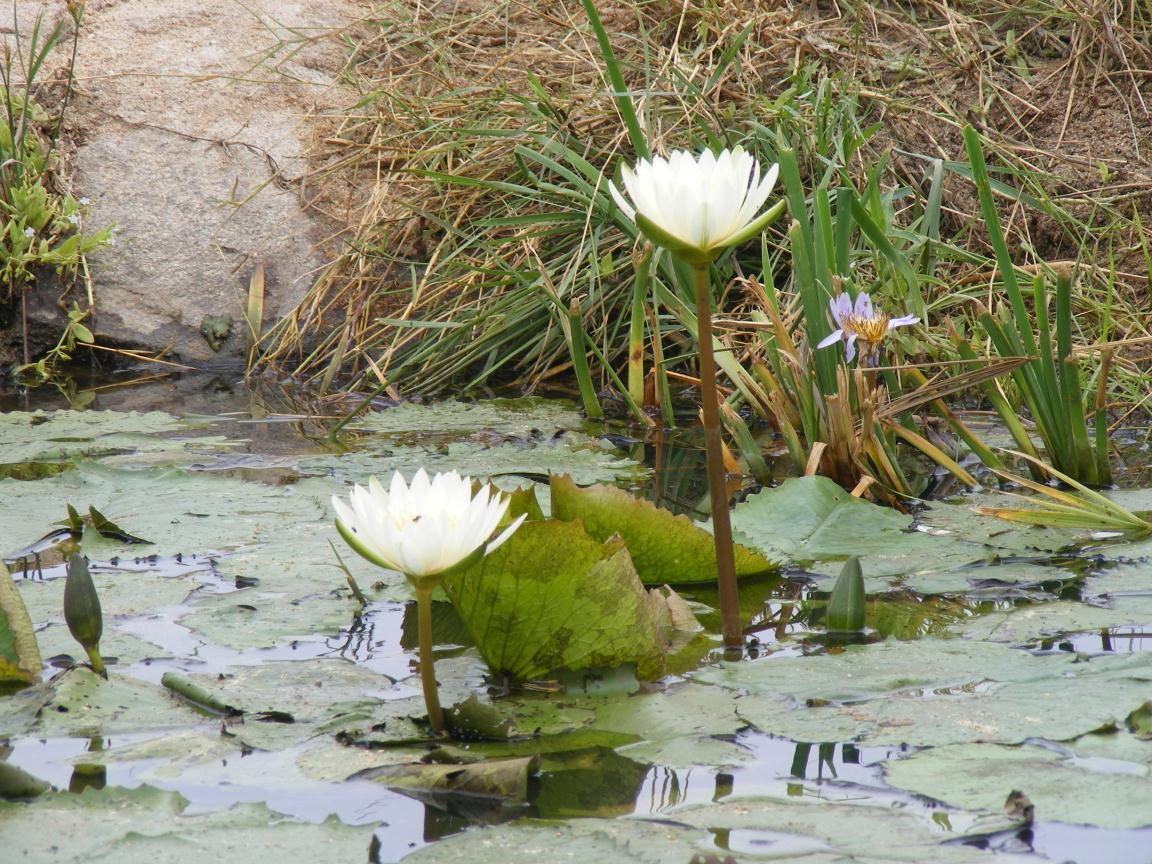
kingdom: Plantae
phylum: Tracheophyta
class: Magnoliopsida
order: Nymphaeales
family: Nymphaeaceae
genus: Nymphaea
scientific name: Nymphaea nouchali
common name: Blue lotus
